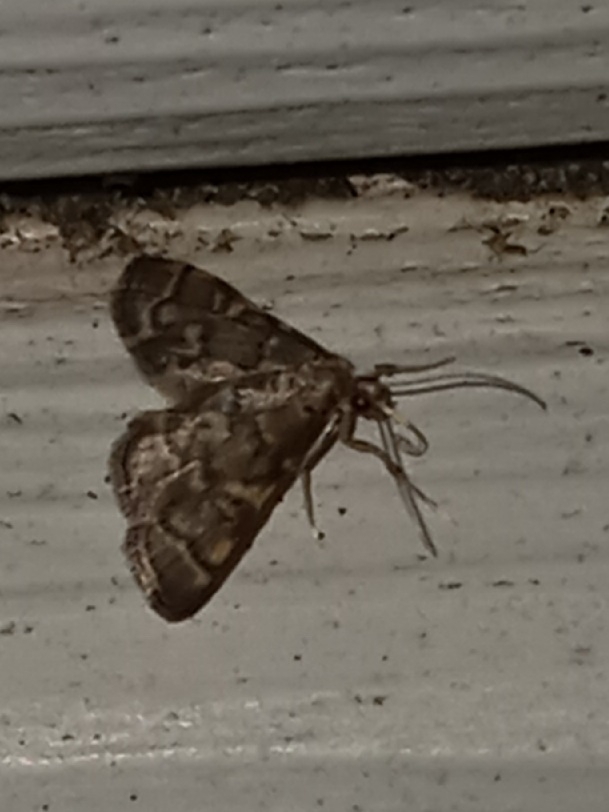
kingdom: Animalia
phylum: Arthropoda
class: Insecta
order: Lepidoptera
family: Crambidae
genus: Anageshna
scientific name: Anageshna primordialis
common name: Yellow-spotted webworm moth
